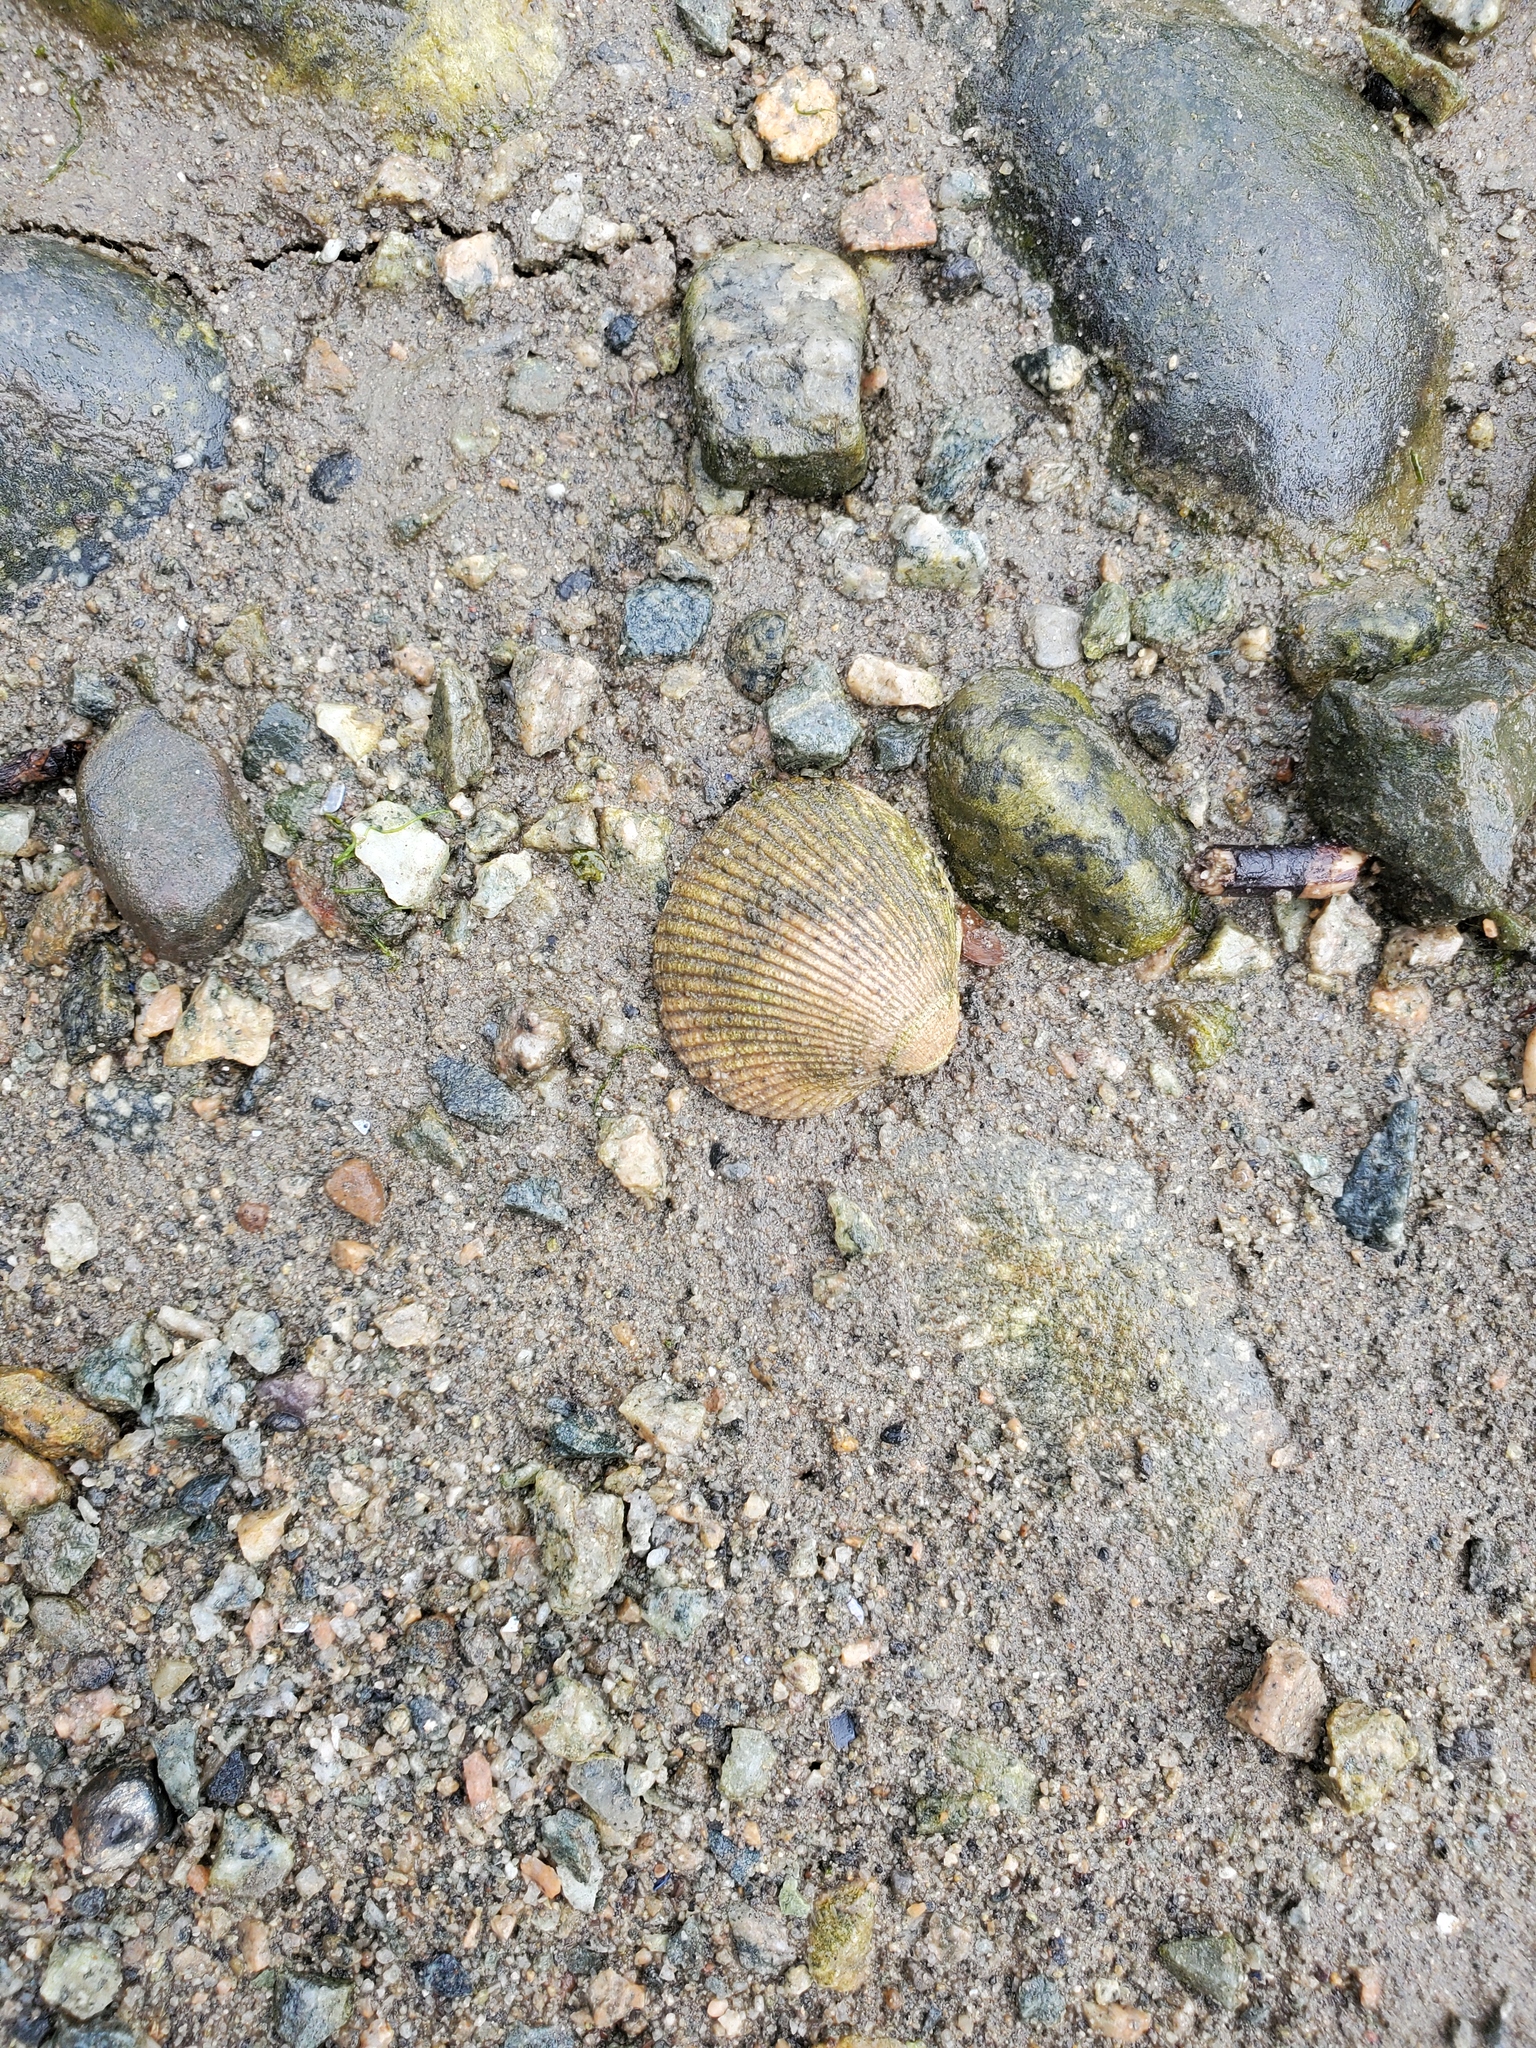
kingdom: Animalia
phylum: Mollusca
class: Bivalvia
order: Cardiida
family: Cardiidae
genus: Clinocardium
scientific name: Clinocardium nuttallii
